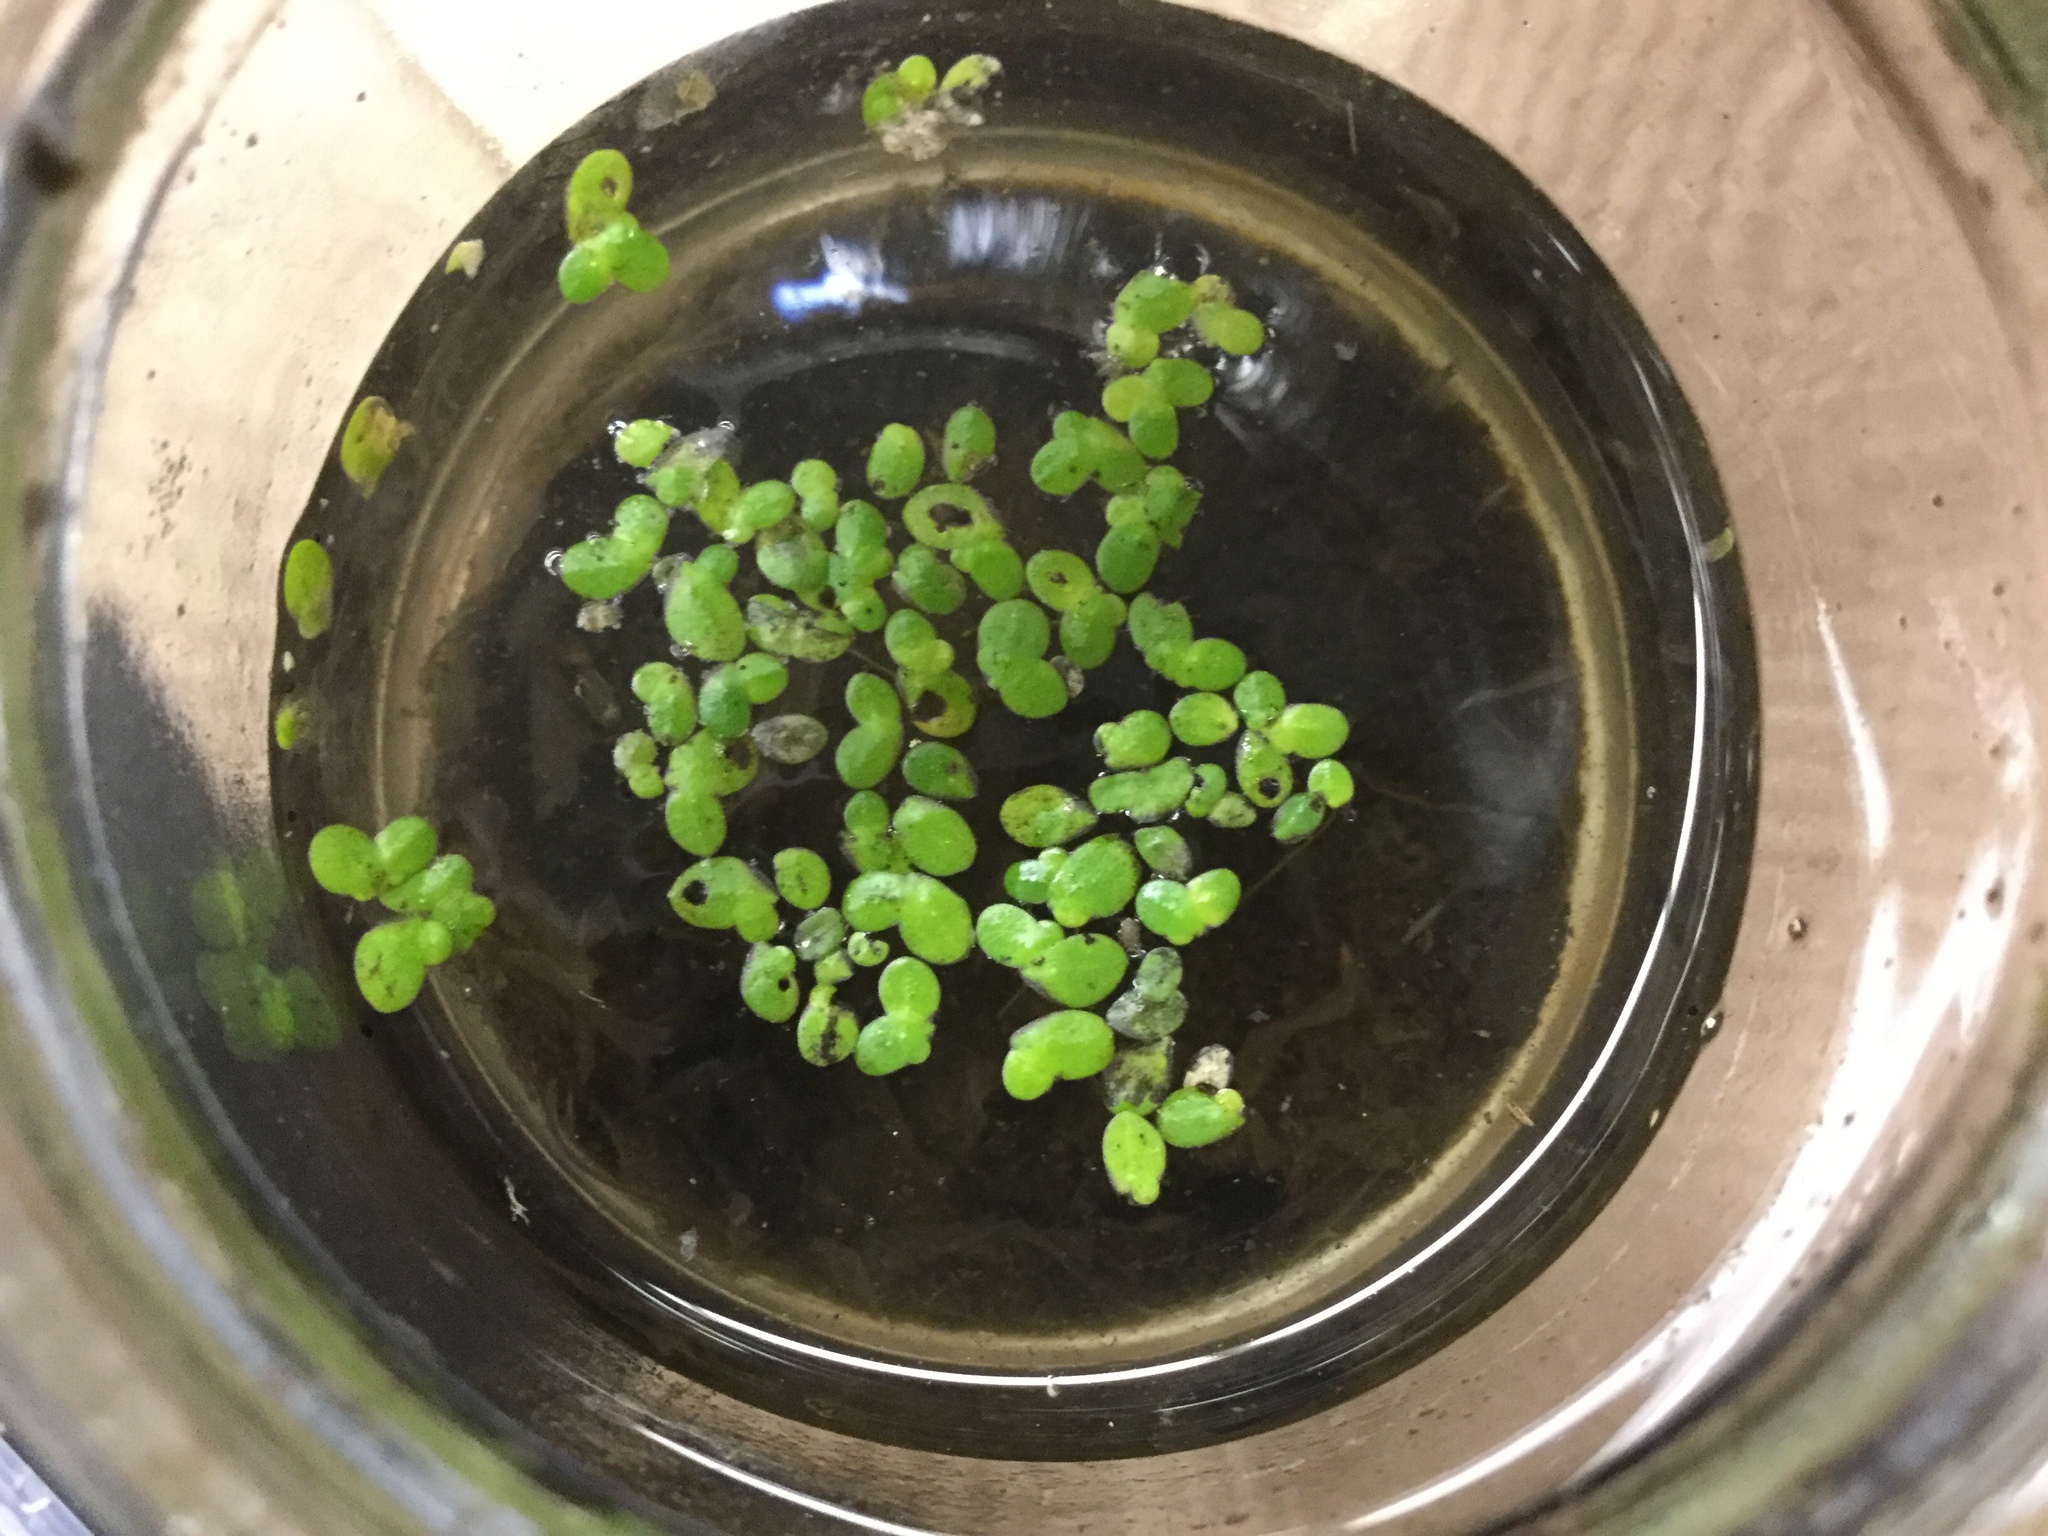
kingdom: Plantae
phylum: Tracheophyta
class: Liliopsida
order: Alismatales
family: Araceae
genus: Lemna
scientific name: Lemna minor
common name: Common duckweed
